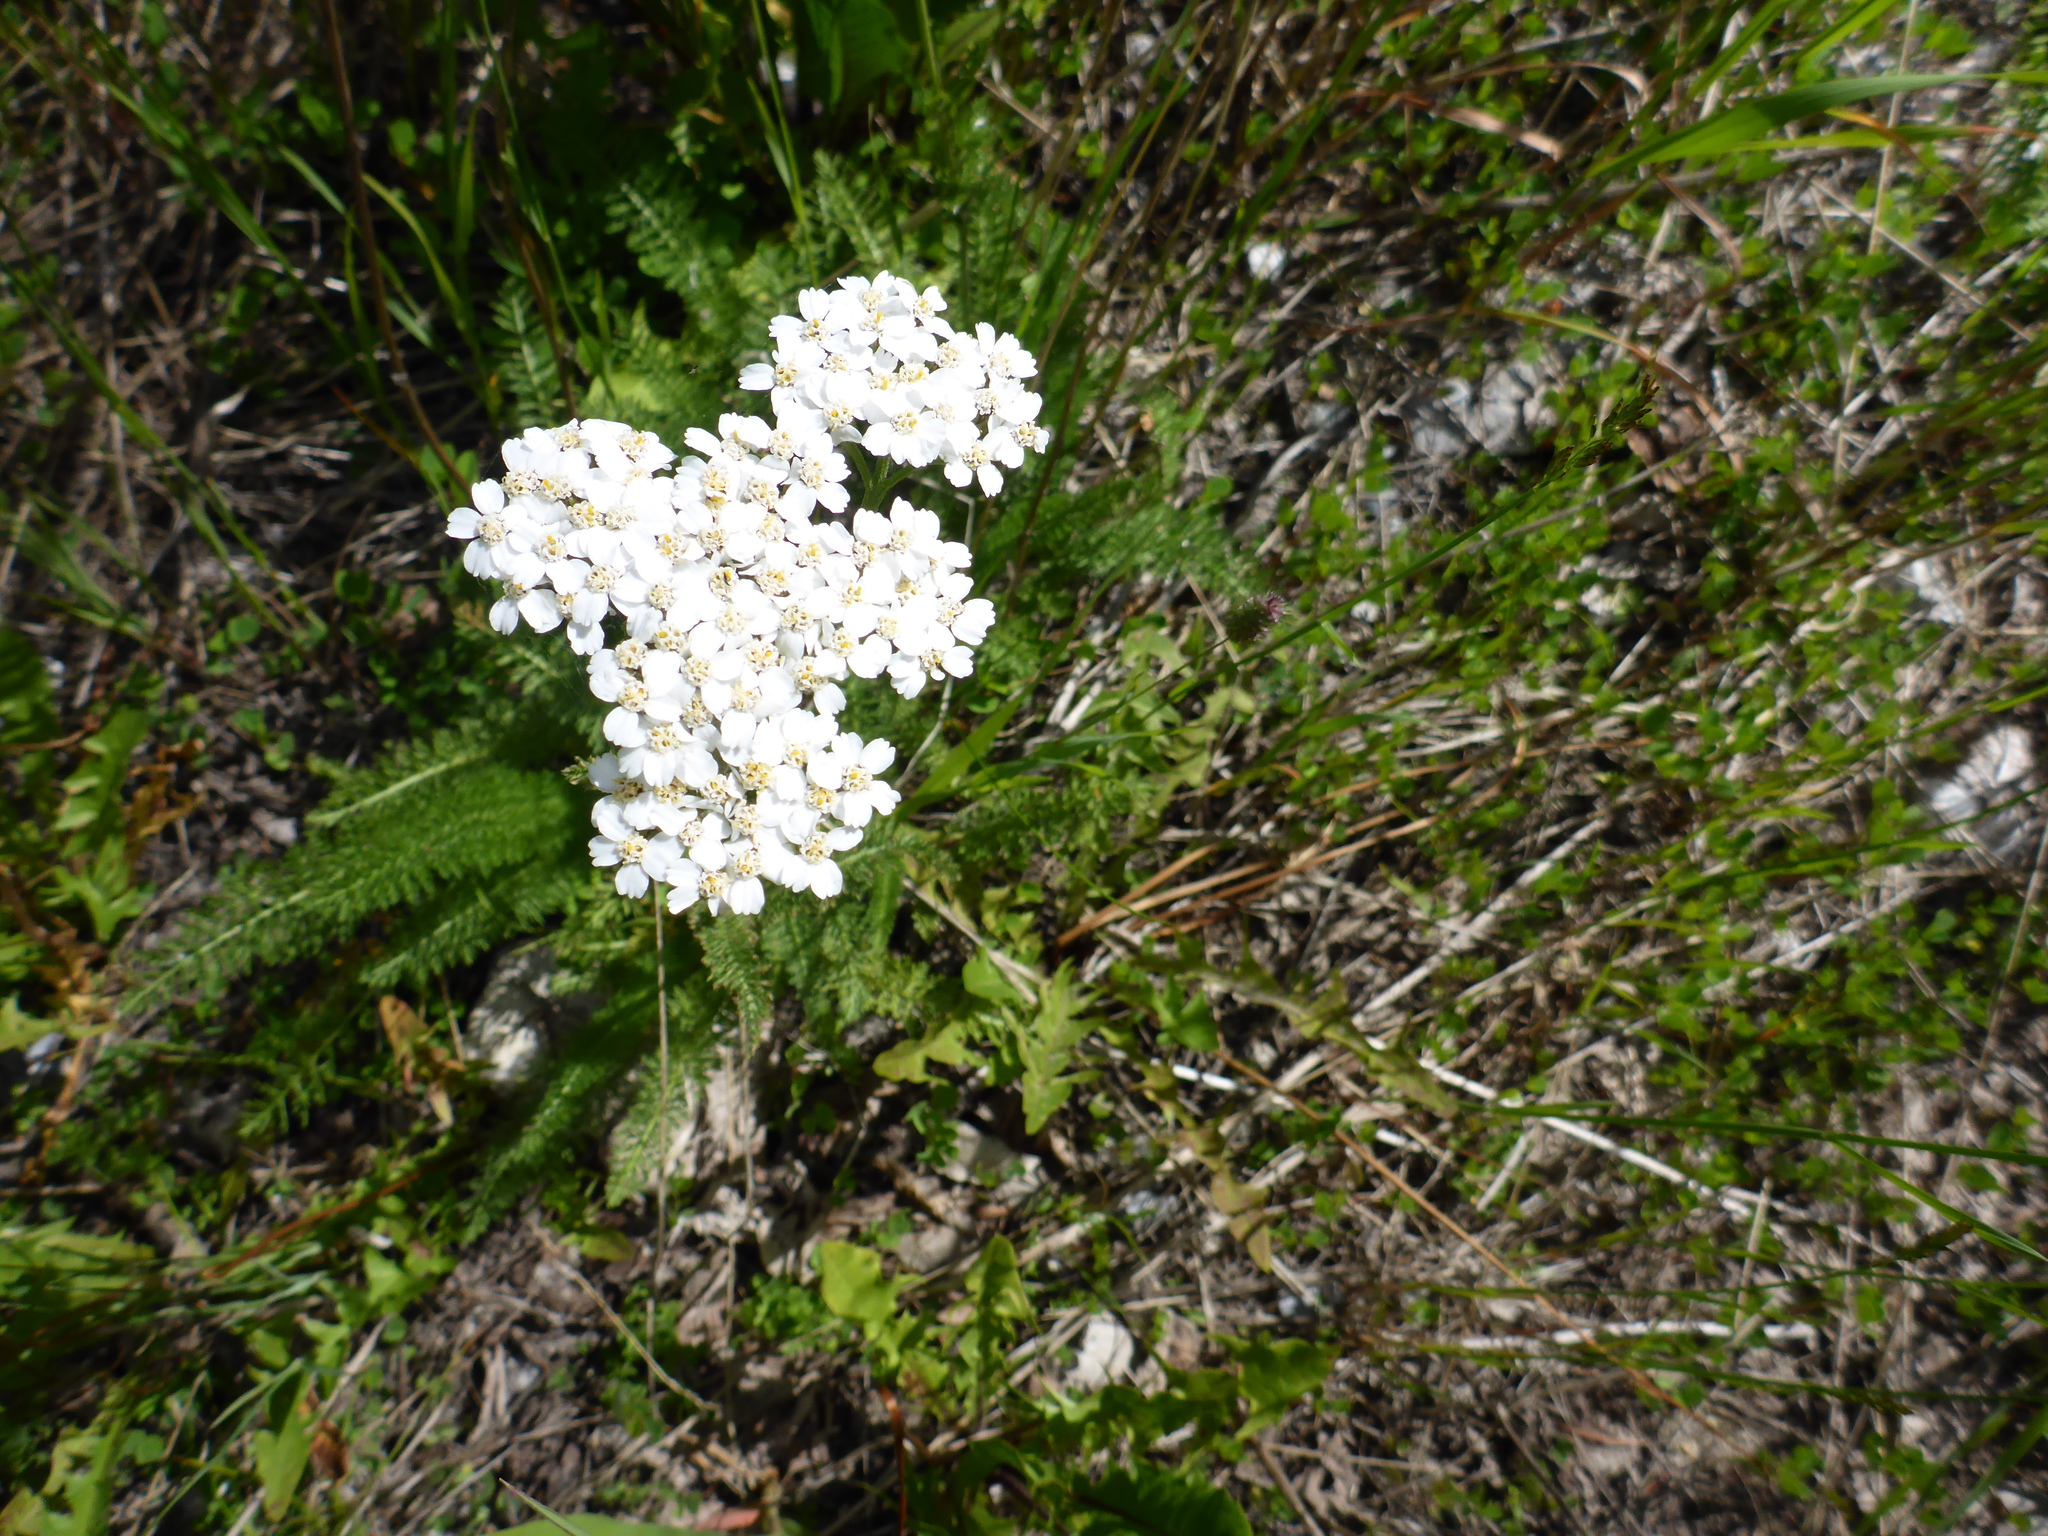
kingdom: Plantae
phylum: Tracheophyta
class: Magnoliopsida
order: Asterales
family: Asteraceae
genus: Achillea
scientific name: Achillea millefolium
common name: Yarrow
